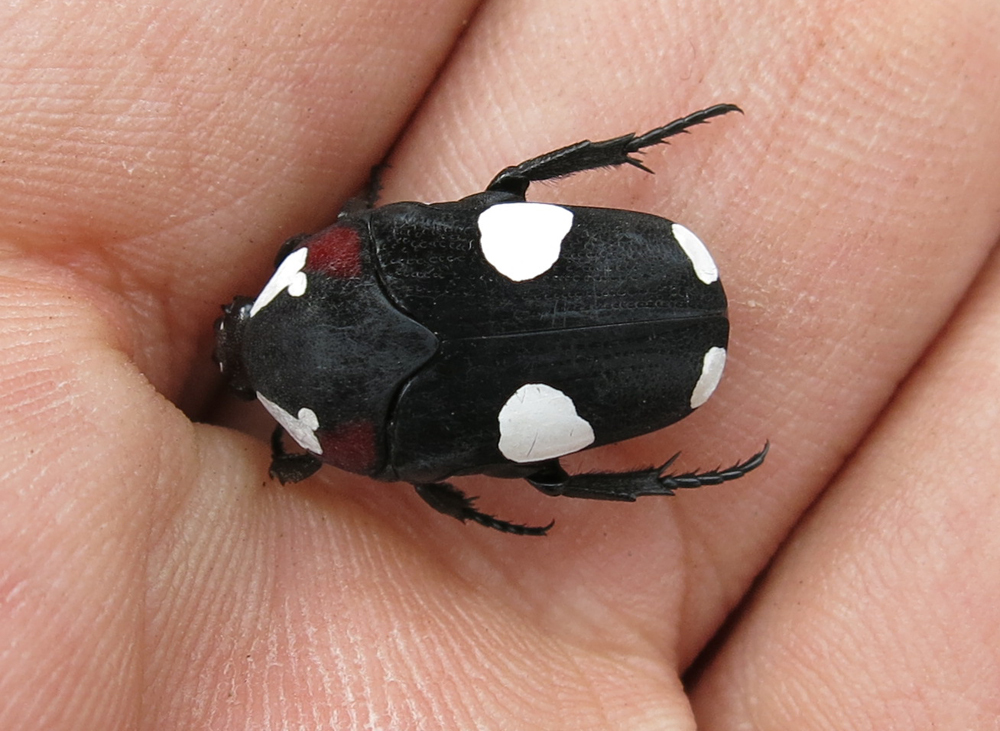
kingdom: Animalia
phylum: Arthropoda
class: Insecta
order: Coleoptera
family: Scarabaeidae
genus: Amazula
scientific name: Amazula suavis
